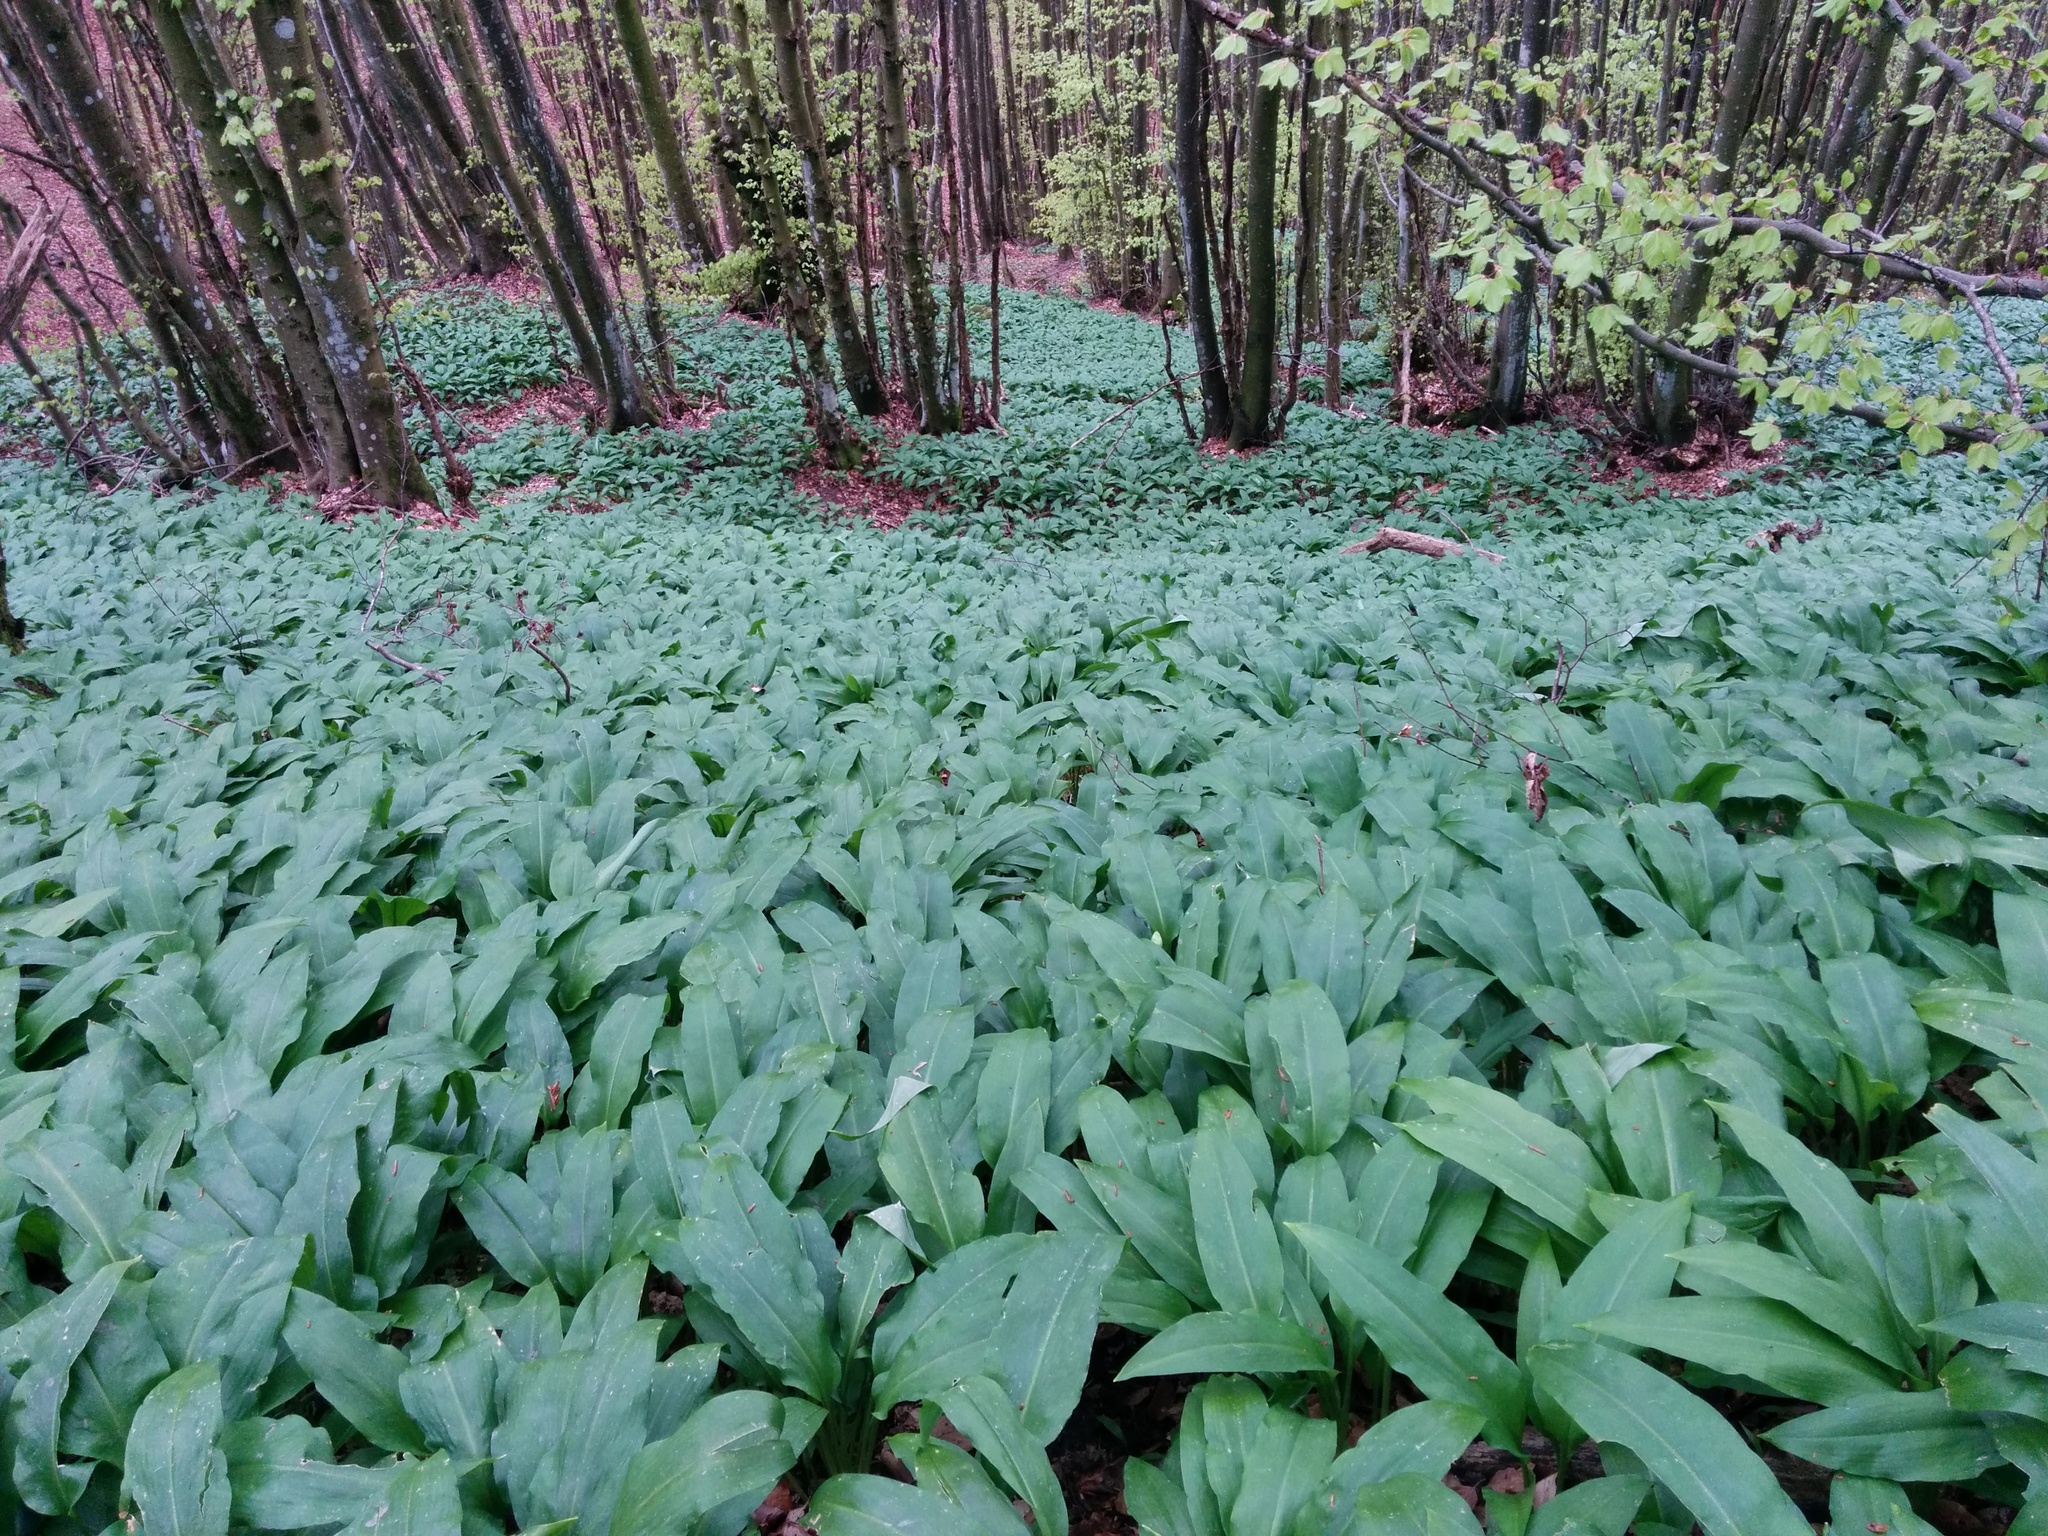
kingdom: Plantae
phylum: Tracheophyta
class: Liliopsida
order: Asparagales
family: Amaryllidaceae
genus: Allium
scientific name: Allium ursinum
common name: Ramsons
